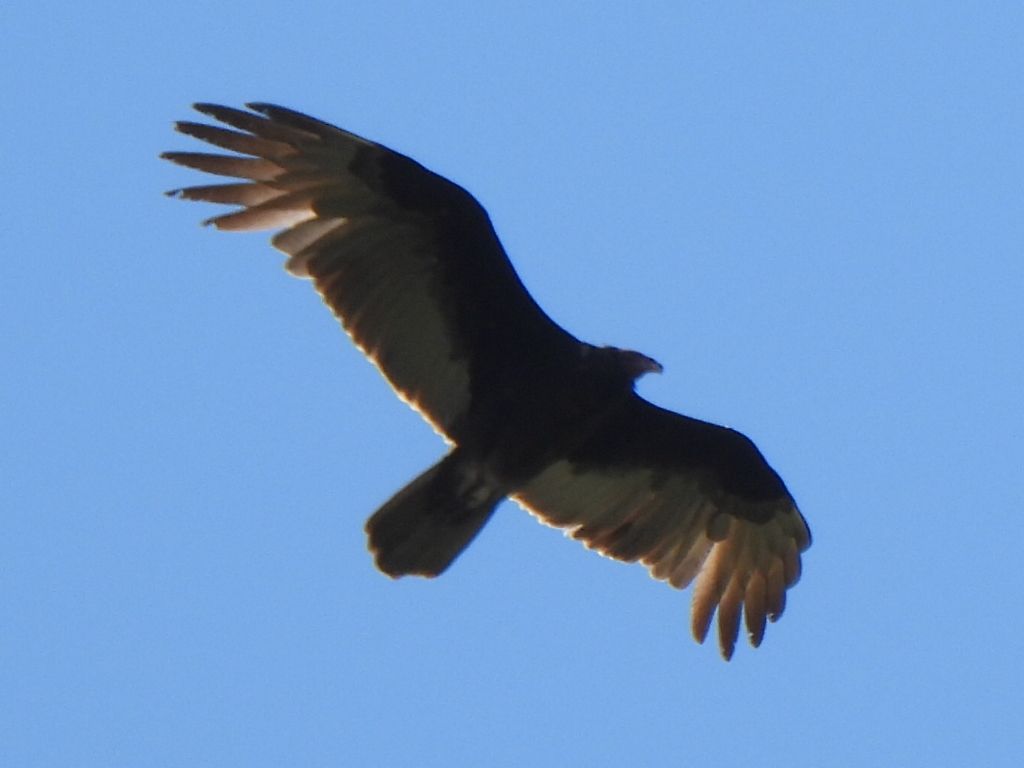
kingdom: Animalia
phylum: Chordata
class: Aves
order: Accipitriformes
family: Cathartidae
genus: Cathartes
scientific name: Cathartes aura
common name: Turkey vulture
